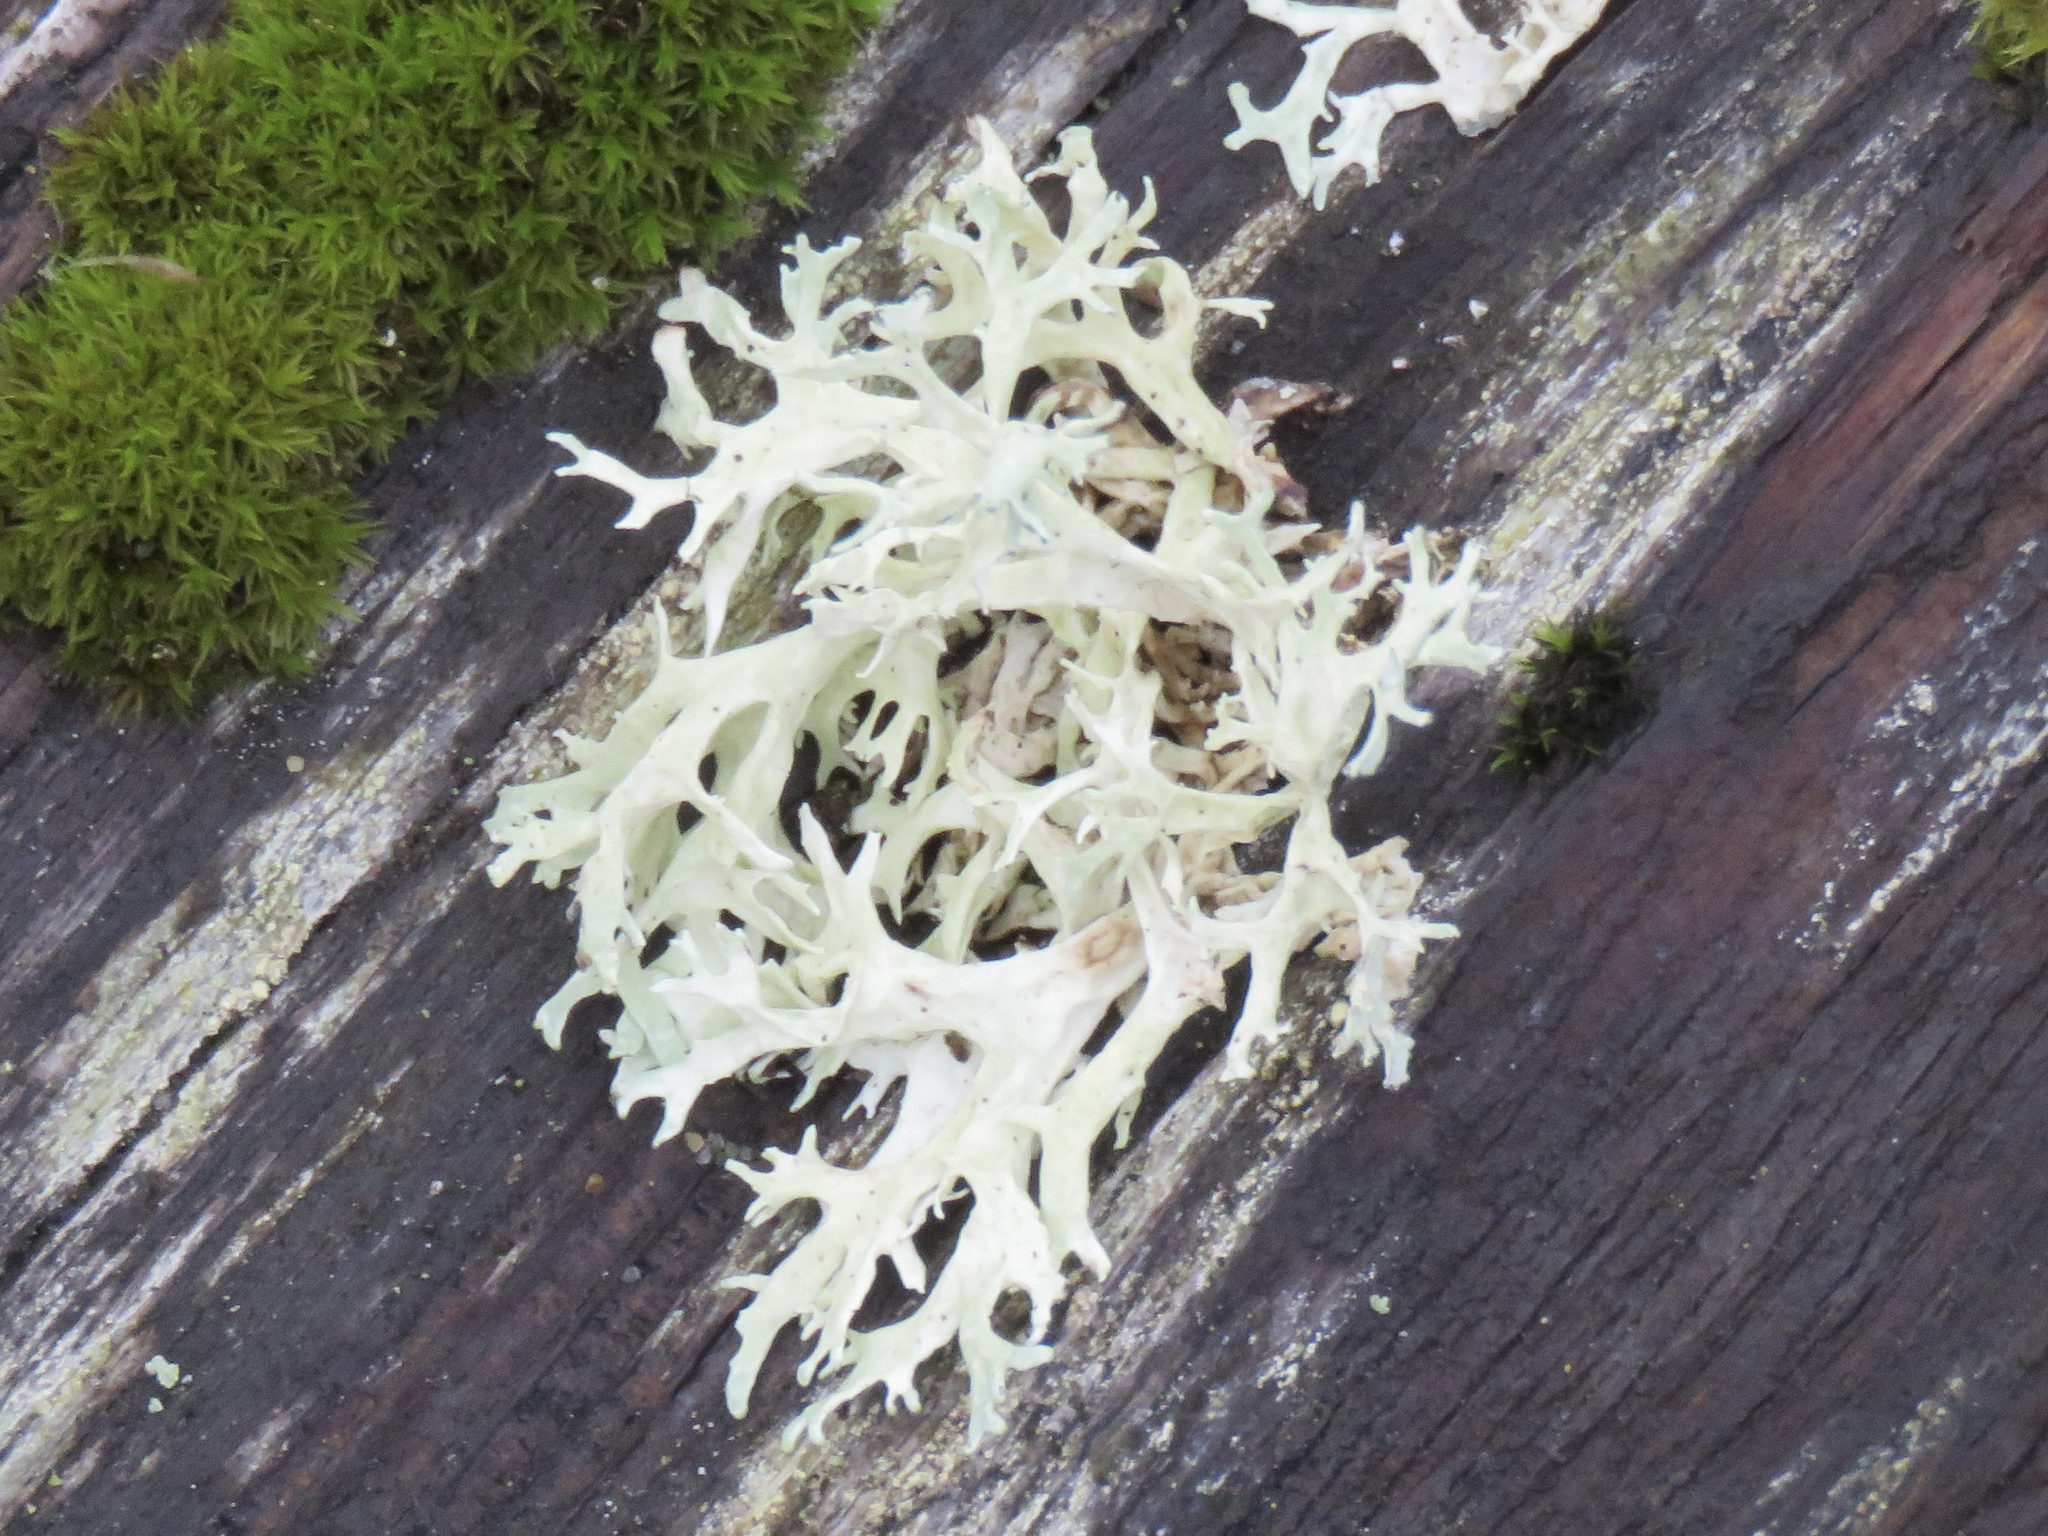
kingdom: Fungi
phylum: Ascomycota
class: Lecanoromycetes
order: Lecanorales
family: Parmeliaceae
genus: Evernia
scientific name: Evernia prunastri
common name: Oak moss
